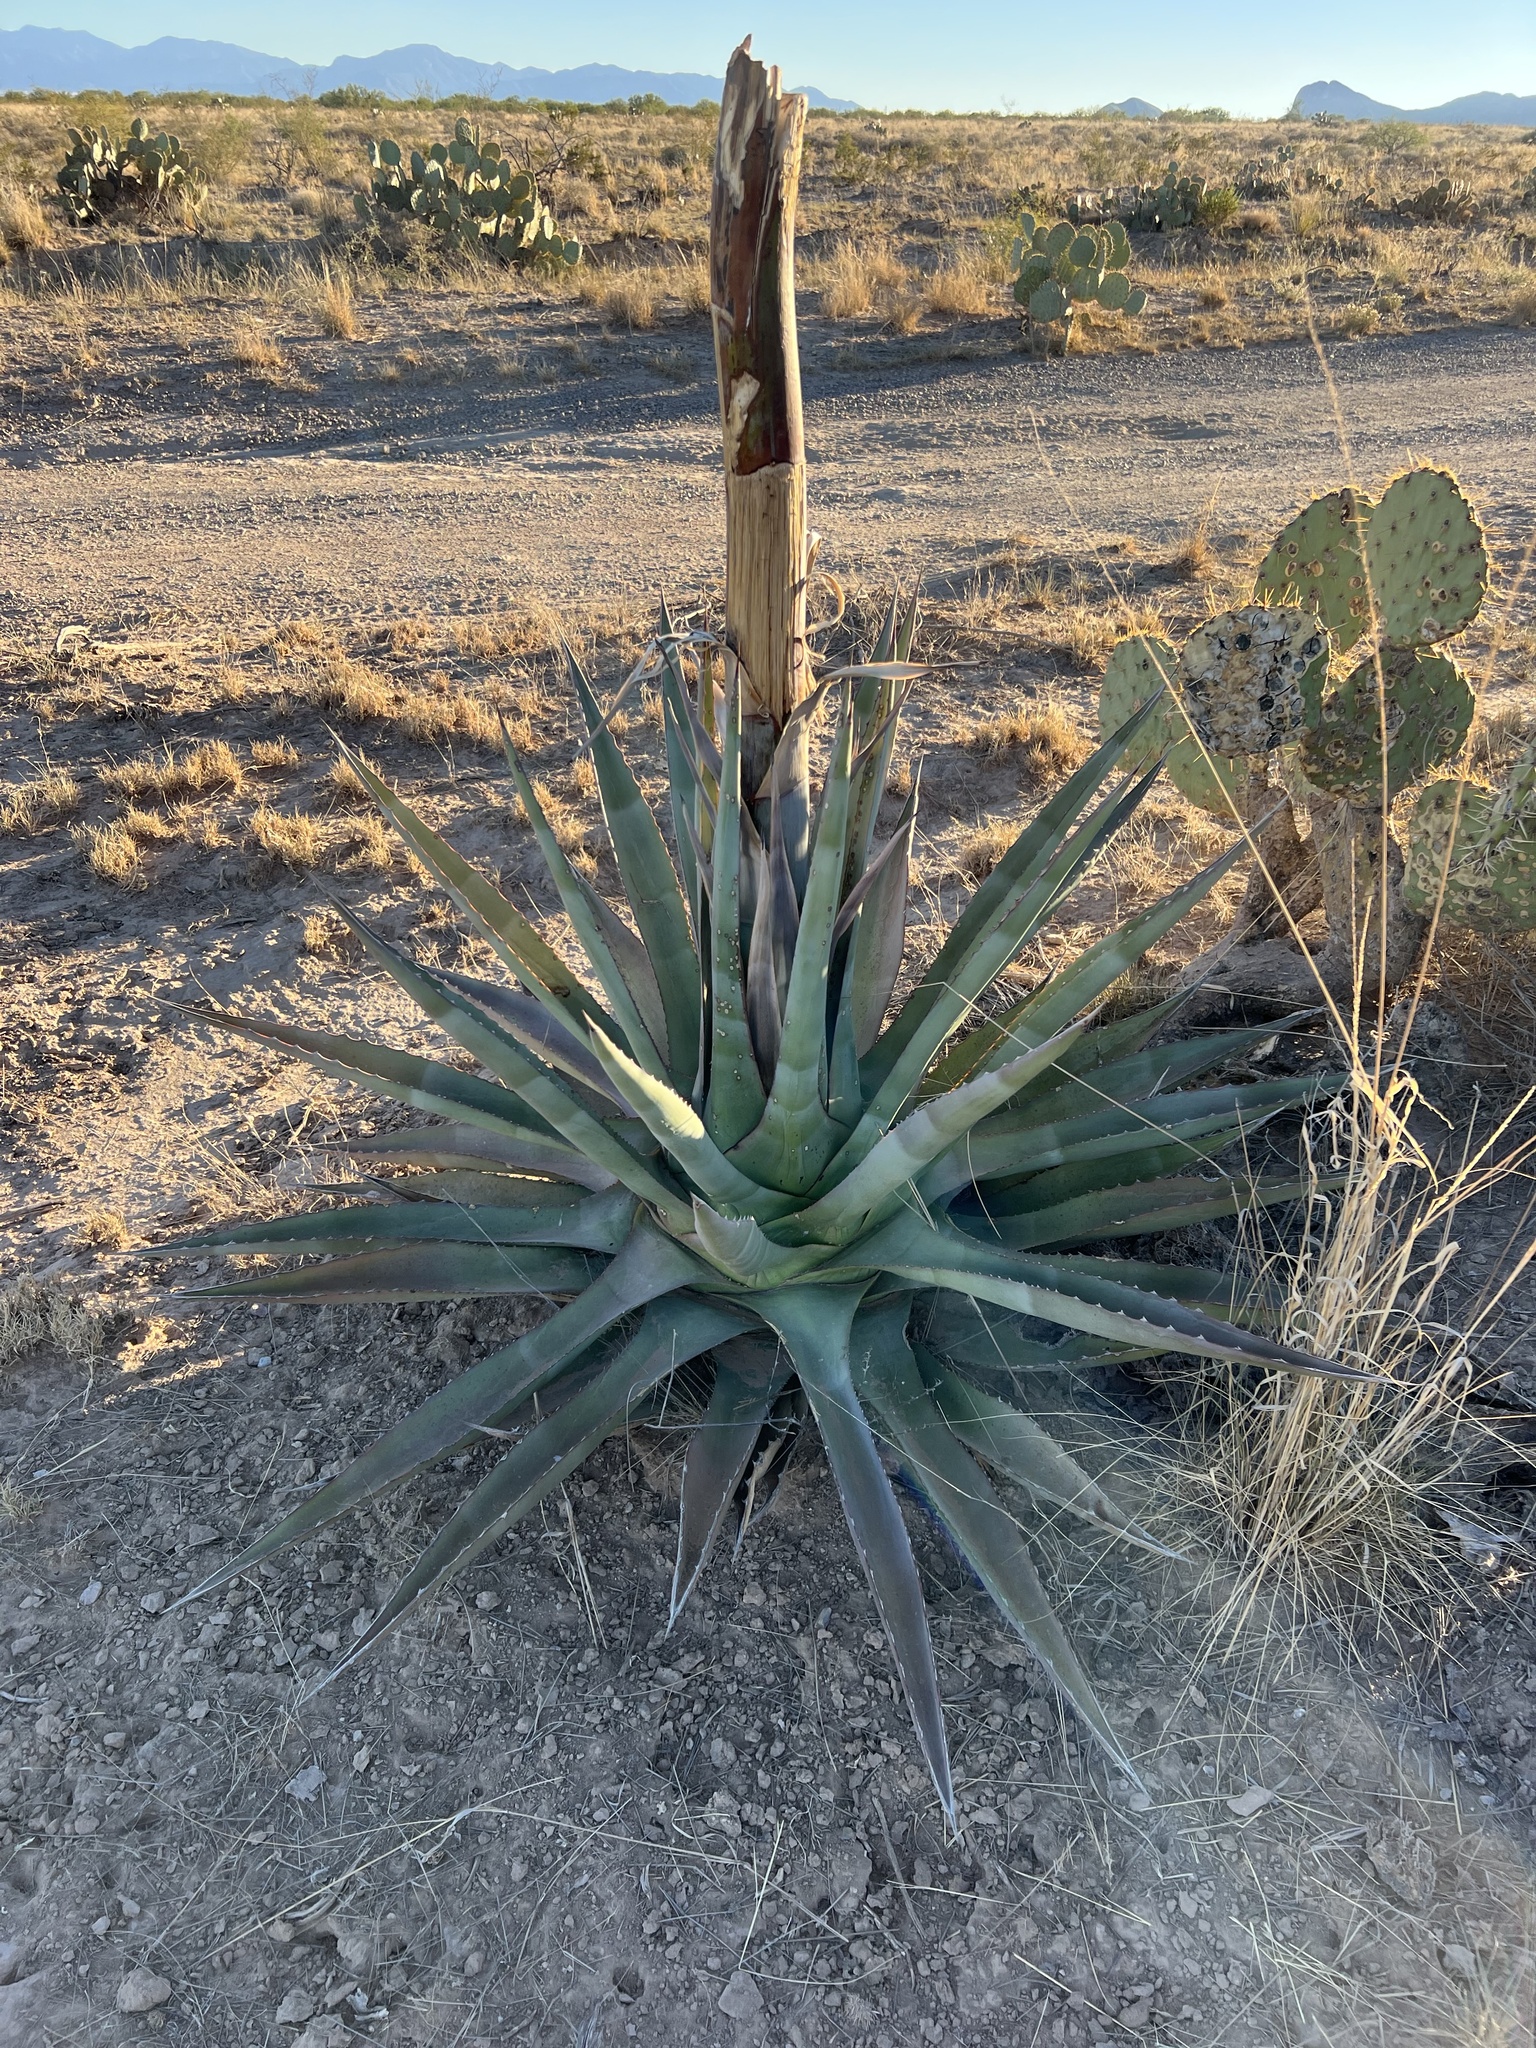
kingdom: Plantae
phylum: Tracheophyta
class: Liliopsida
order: Asparagales
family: Asparagaceae
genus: Agave
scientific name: Agave palmeri
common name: Palmer agave
